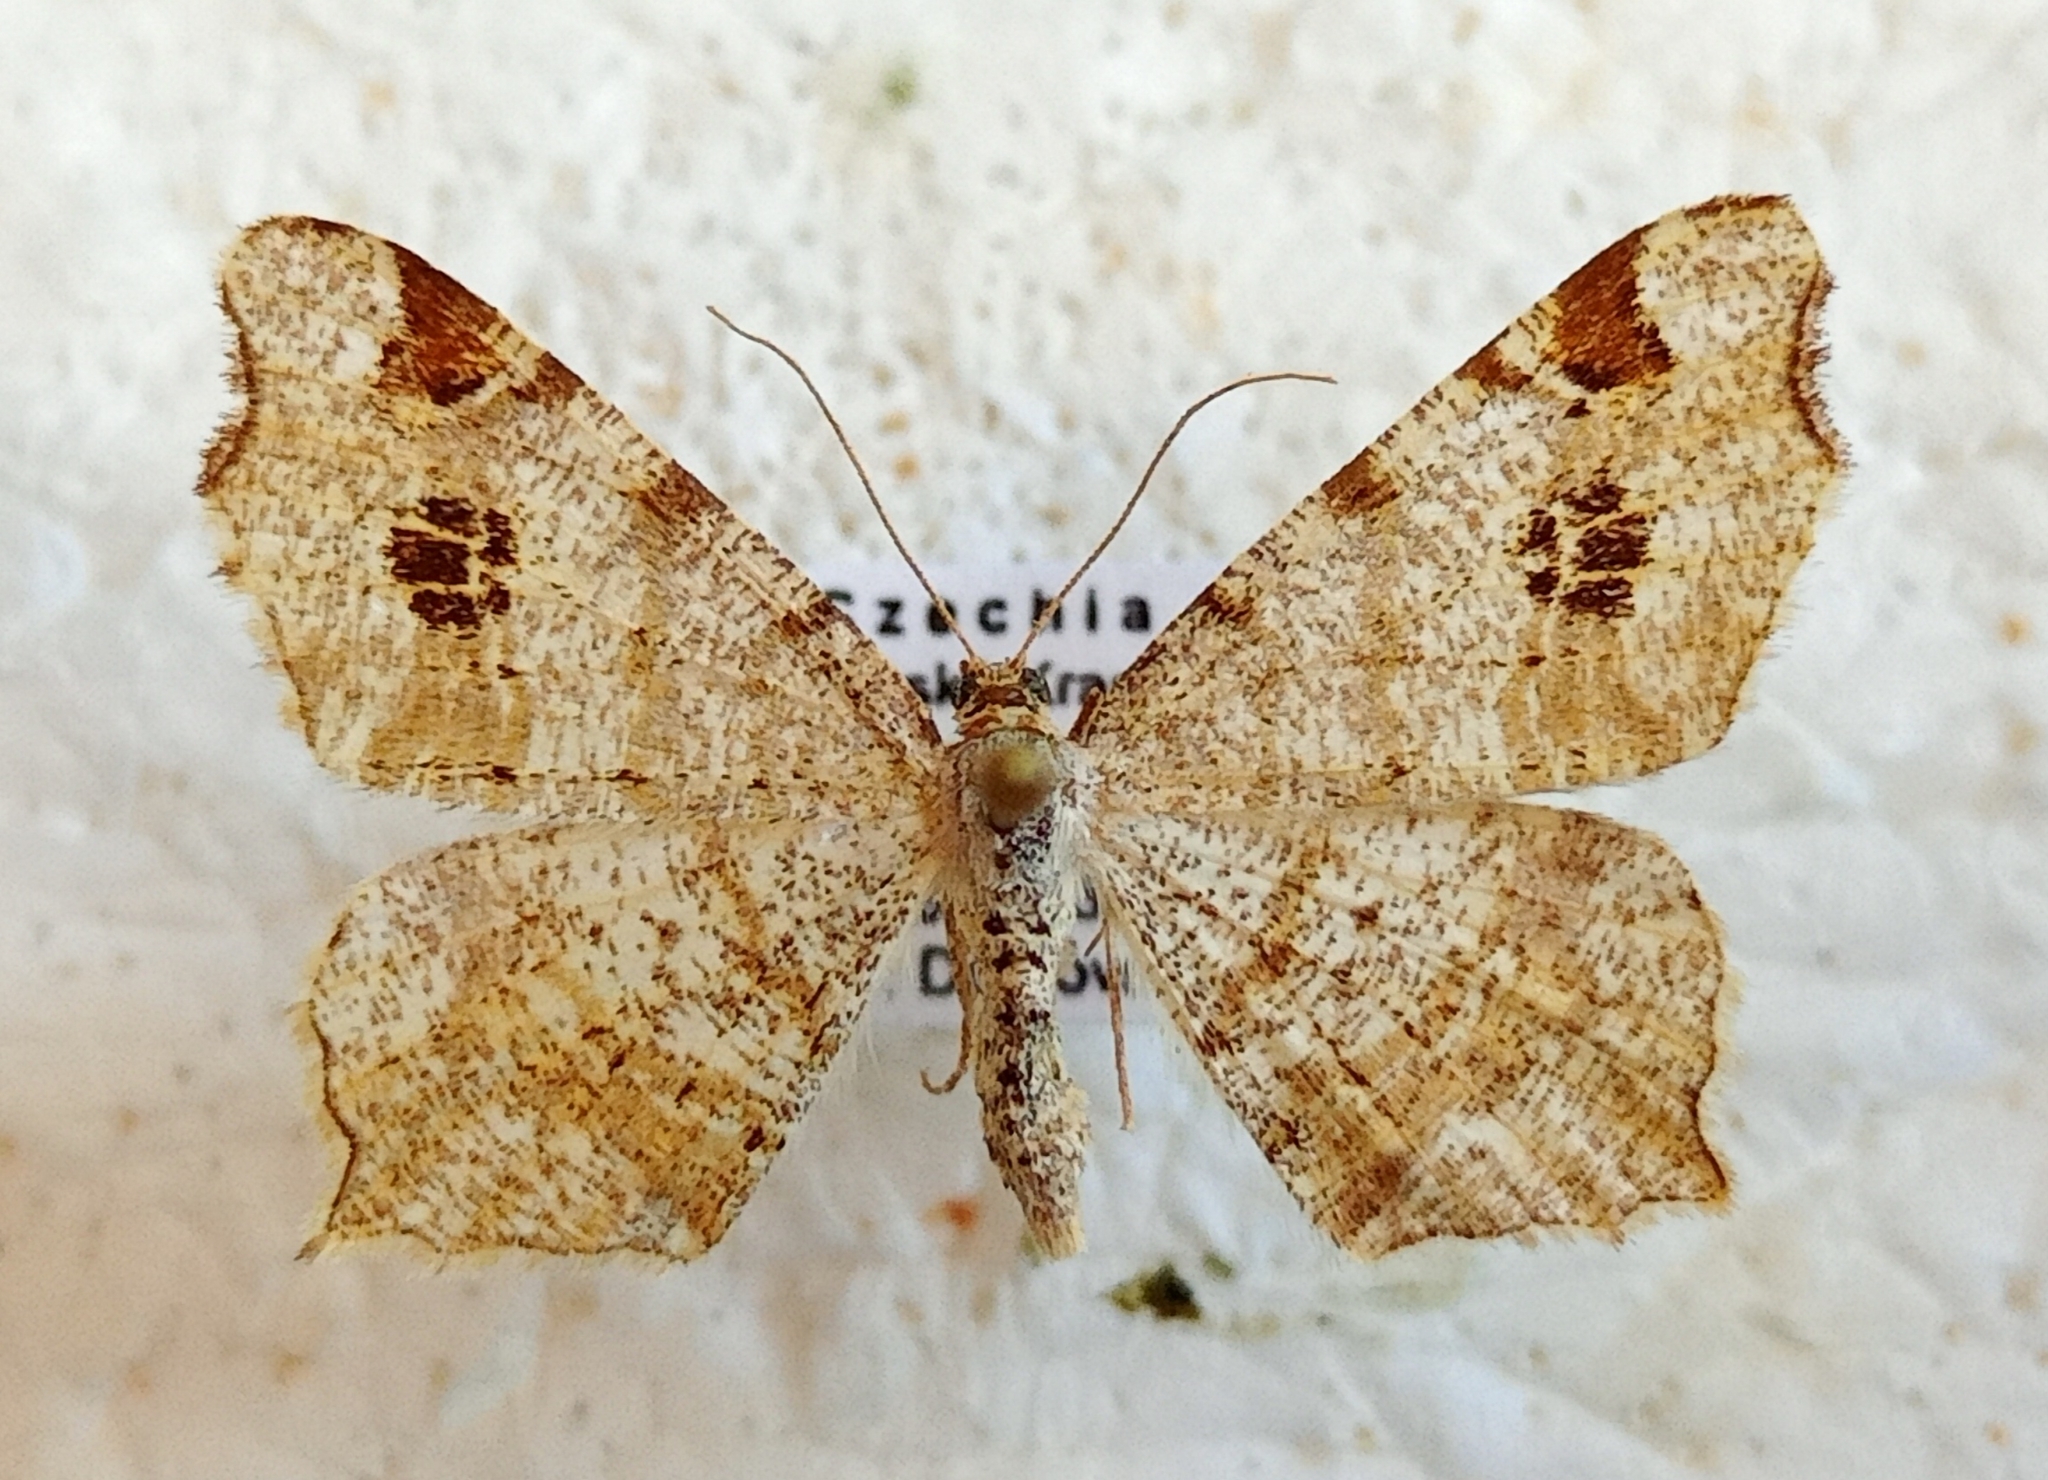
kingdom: Animalia
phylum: Arthropoda
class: Insecta
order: Lepidoptera
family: Geometridae
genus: Macaria
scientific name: Macaria notata
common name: Peacock moth
